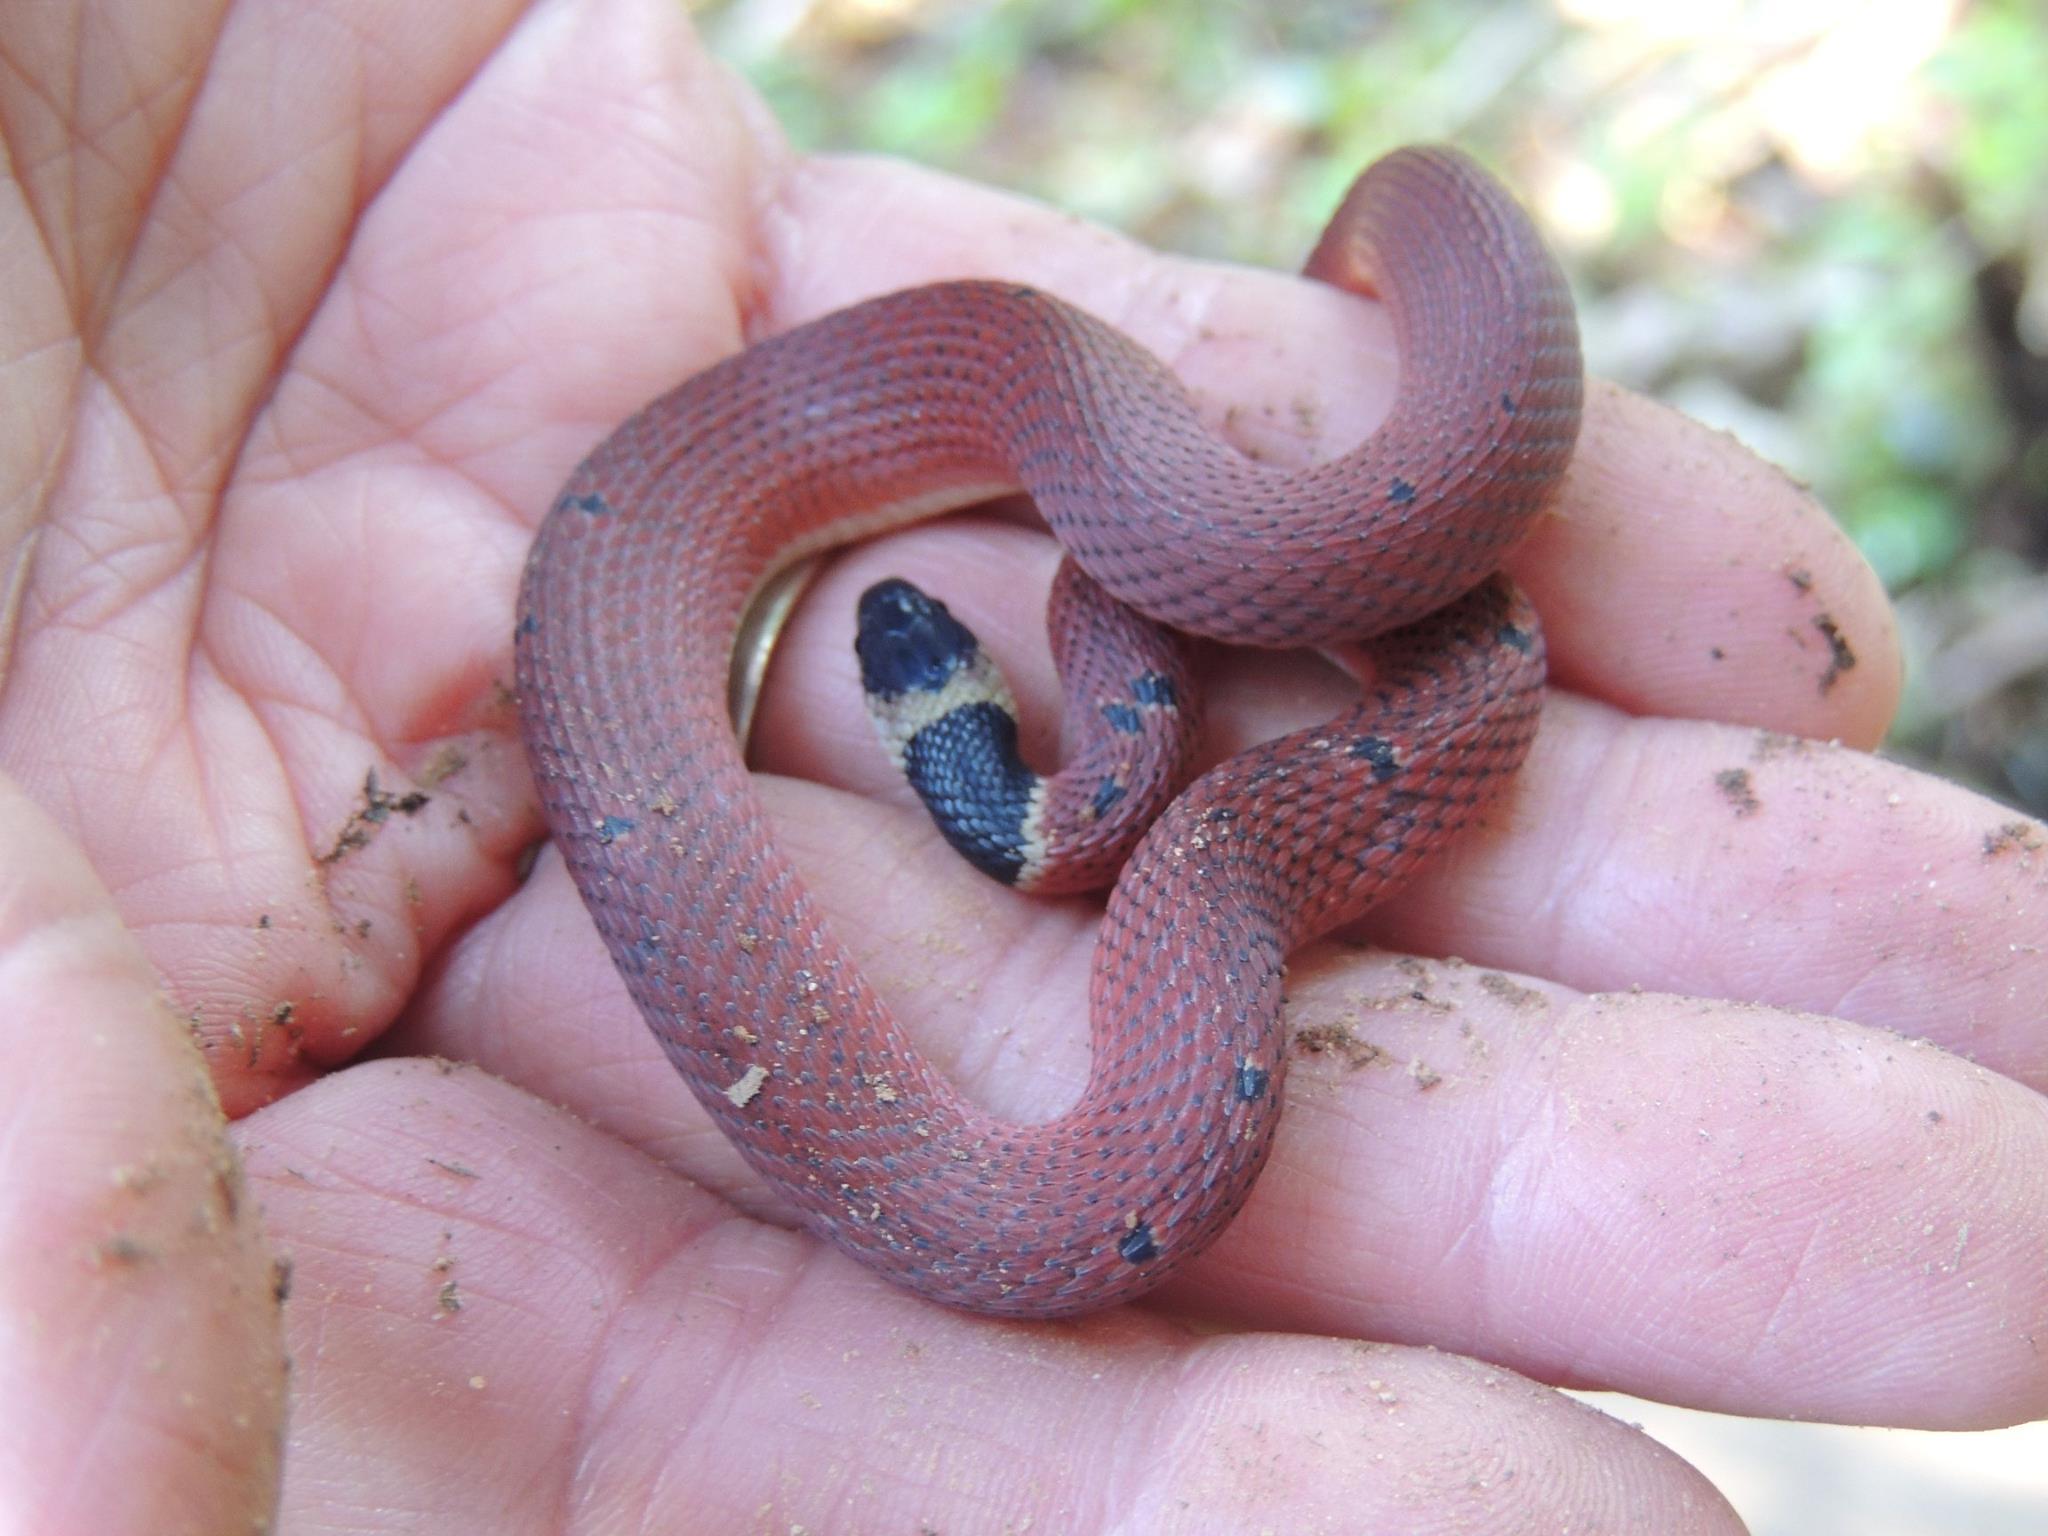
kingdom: Animalia
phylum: Chordata
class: Squamata
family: Colubridae
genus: Ninia
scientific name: Ninia sebae
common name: Redback coffee snake
